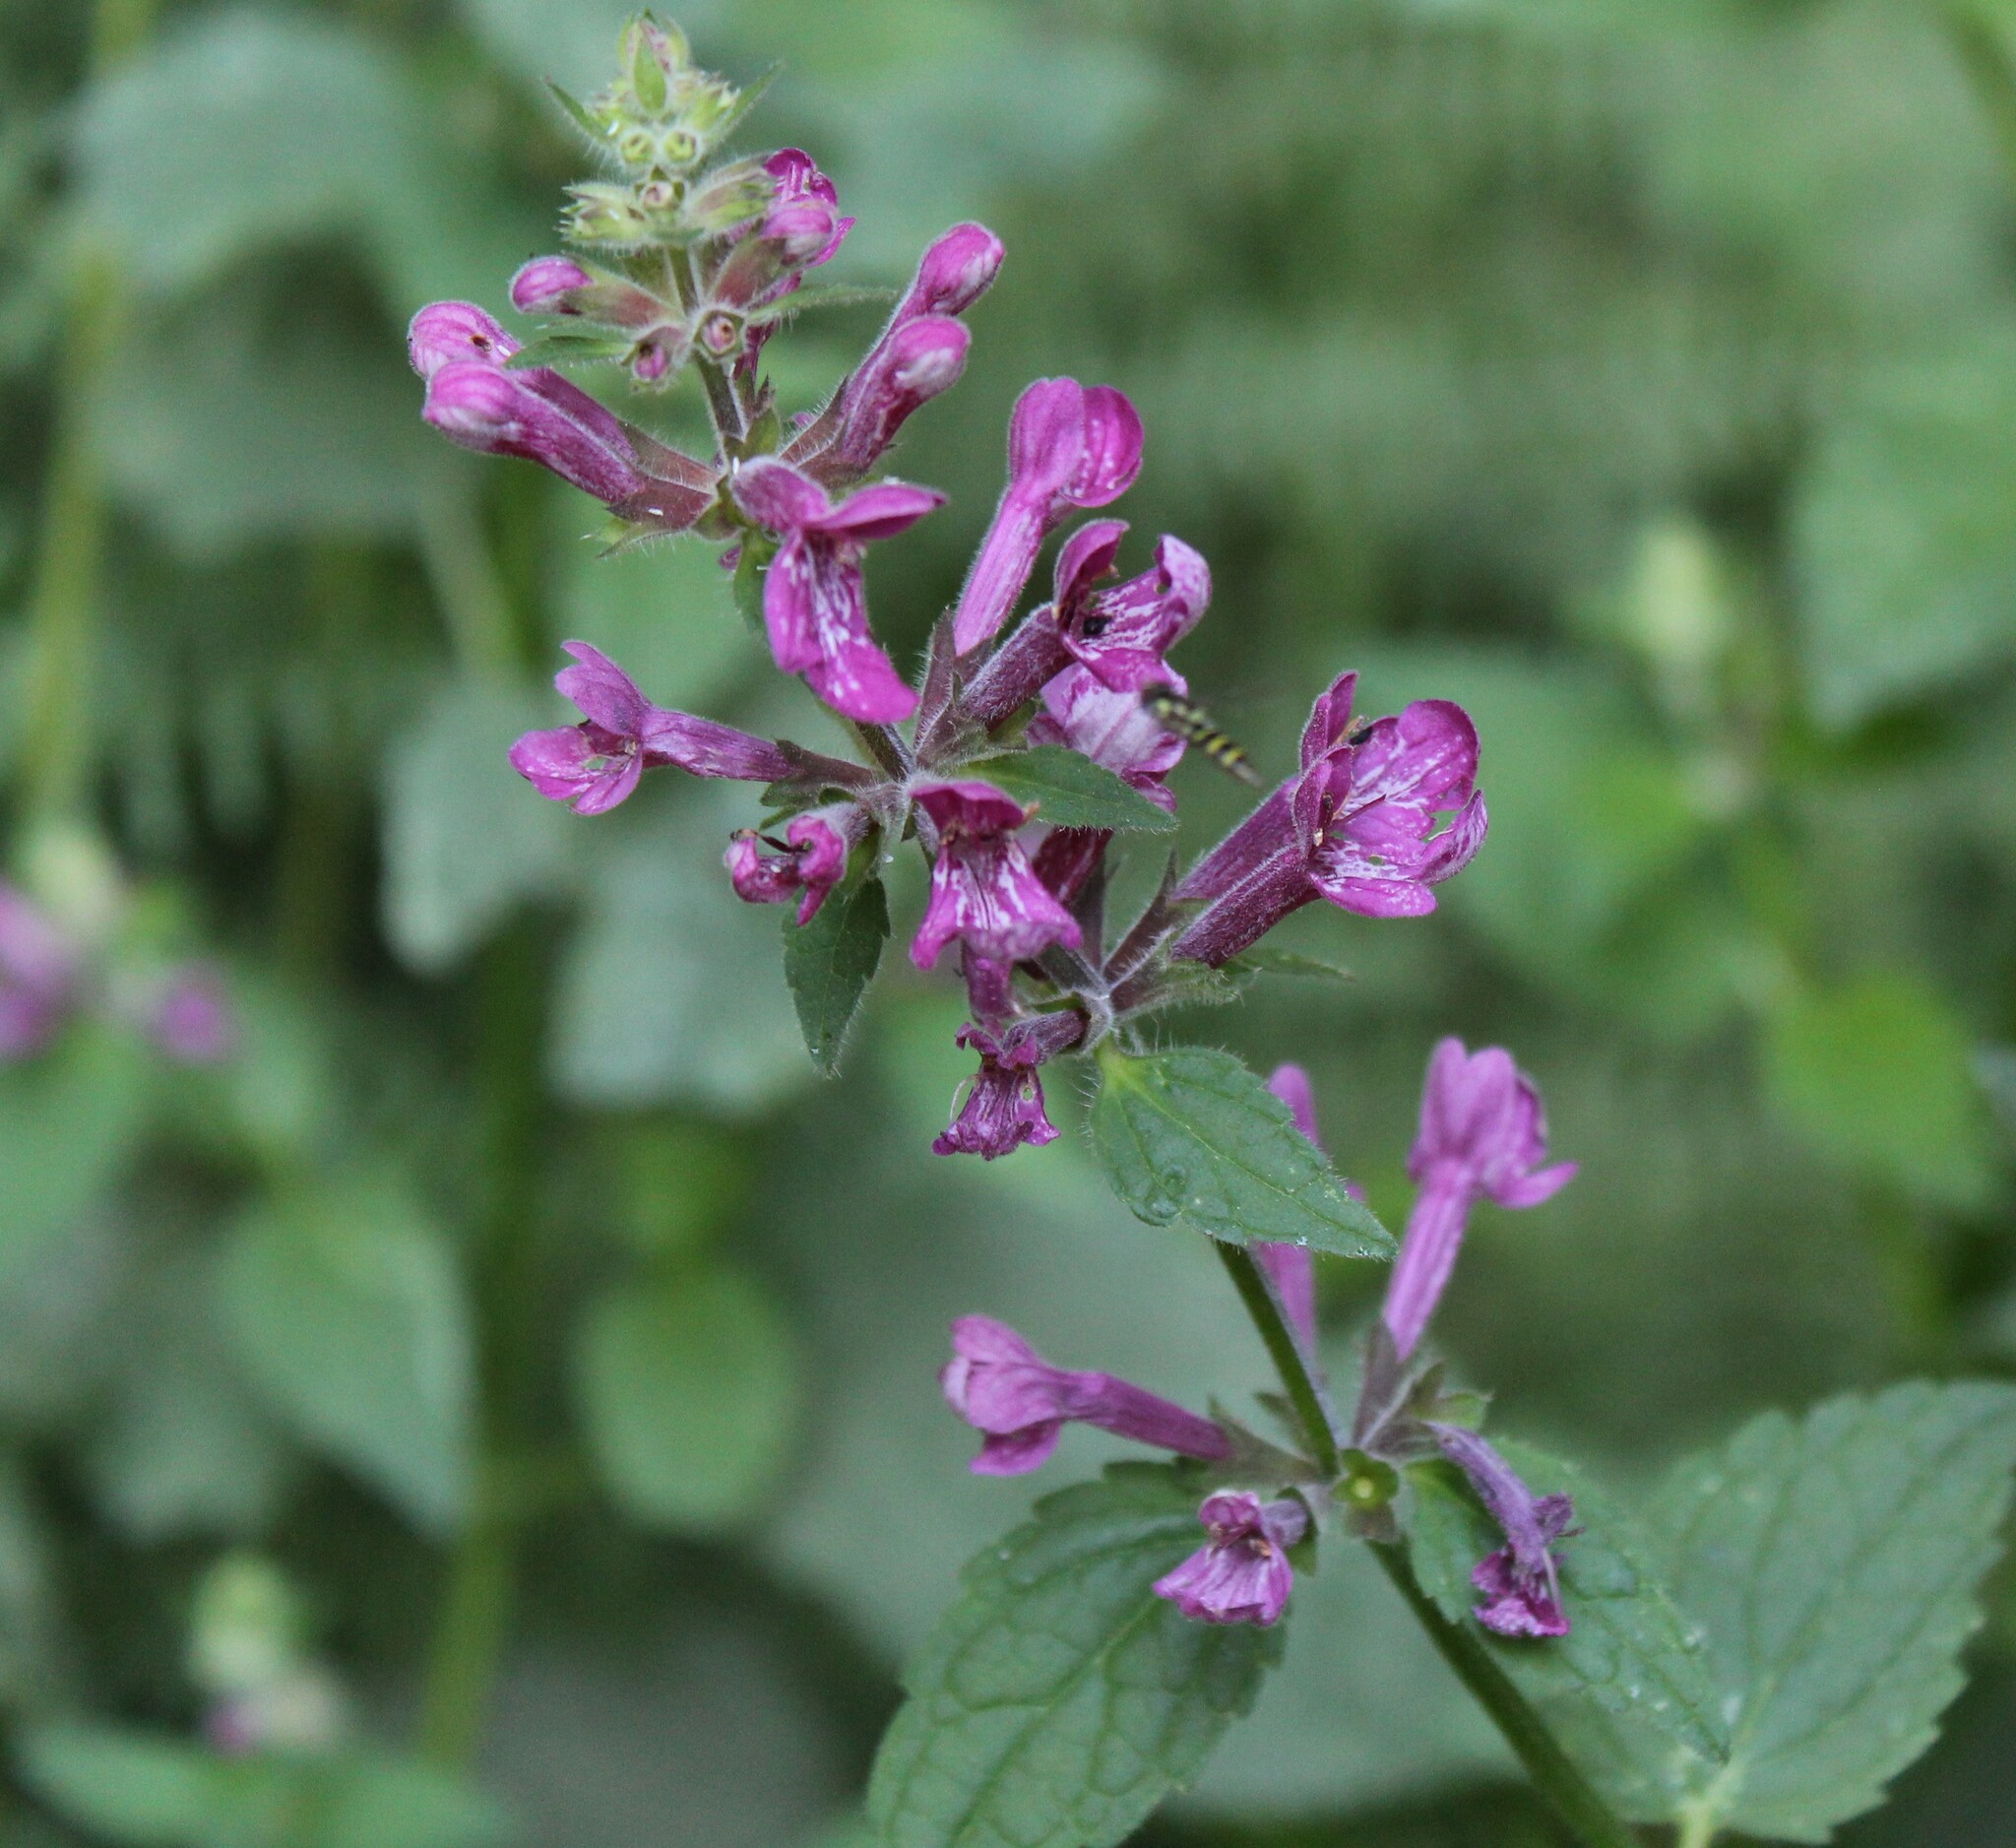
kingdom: Plantae
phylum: Tracheophyta
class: Magnoliopsida
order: Lamiales
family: Lamiaceae
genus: Stachys
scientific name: Stachys chamissonis
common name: Coastal hedge-nettle
